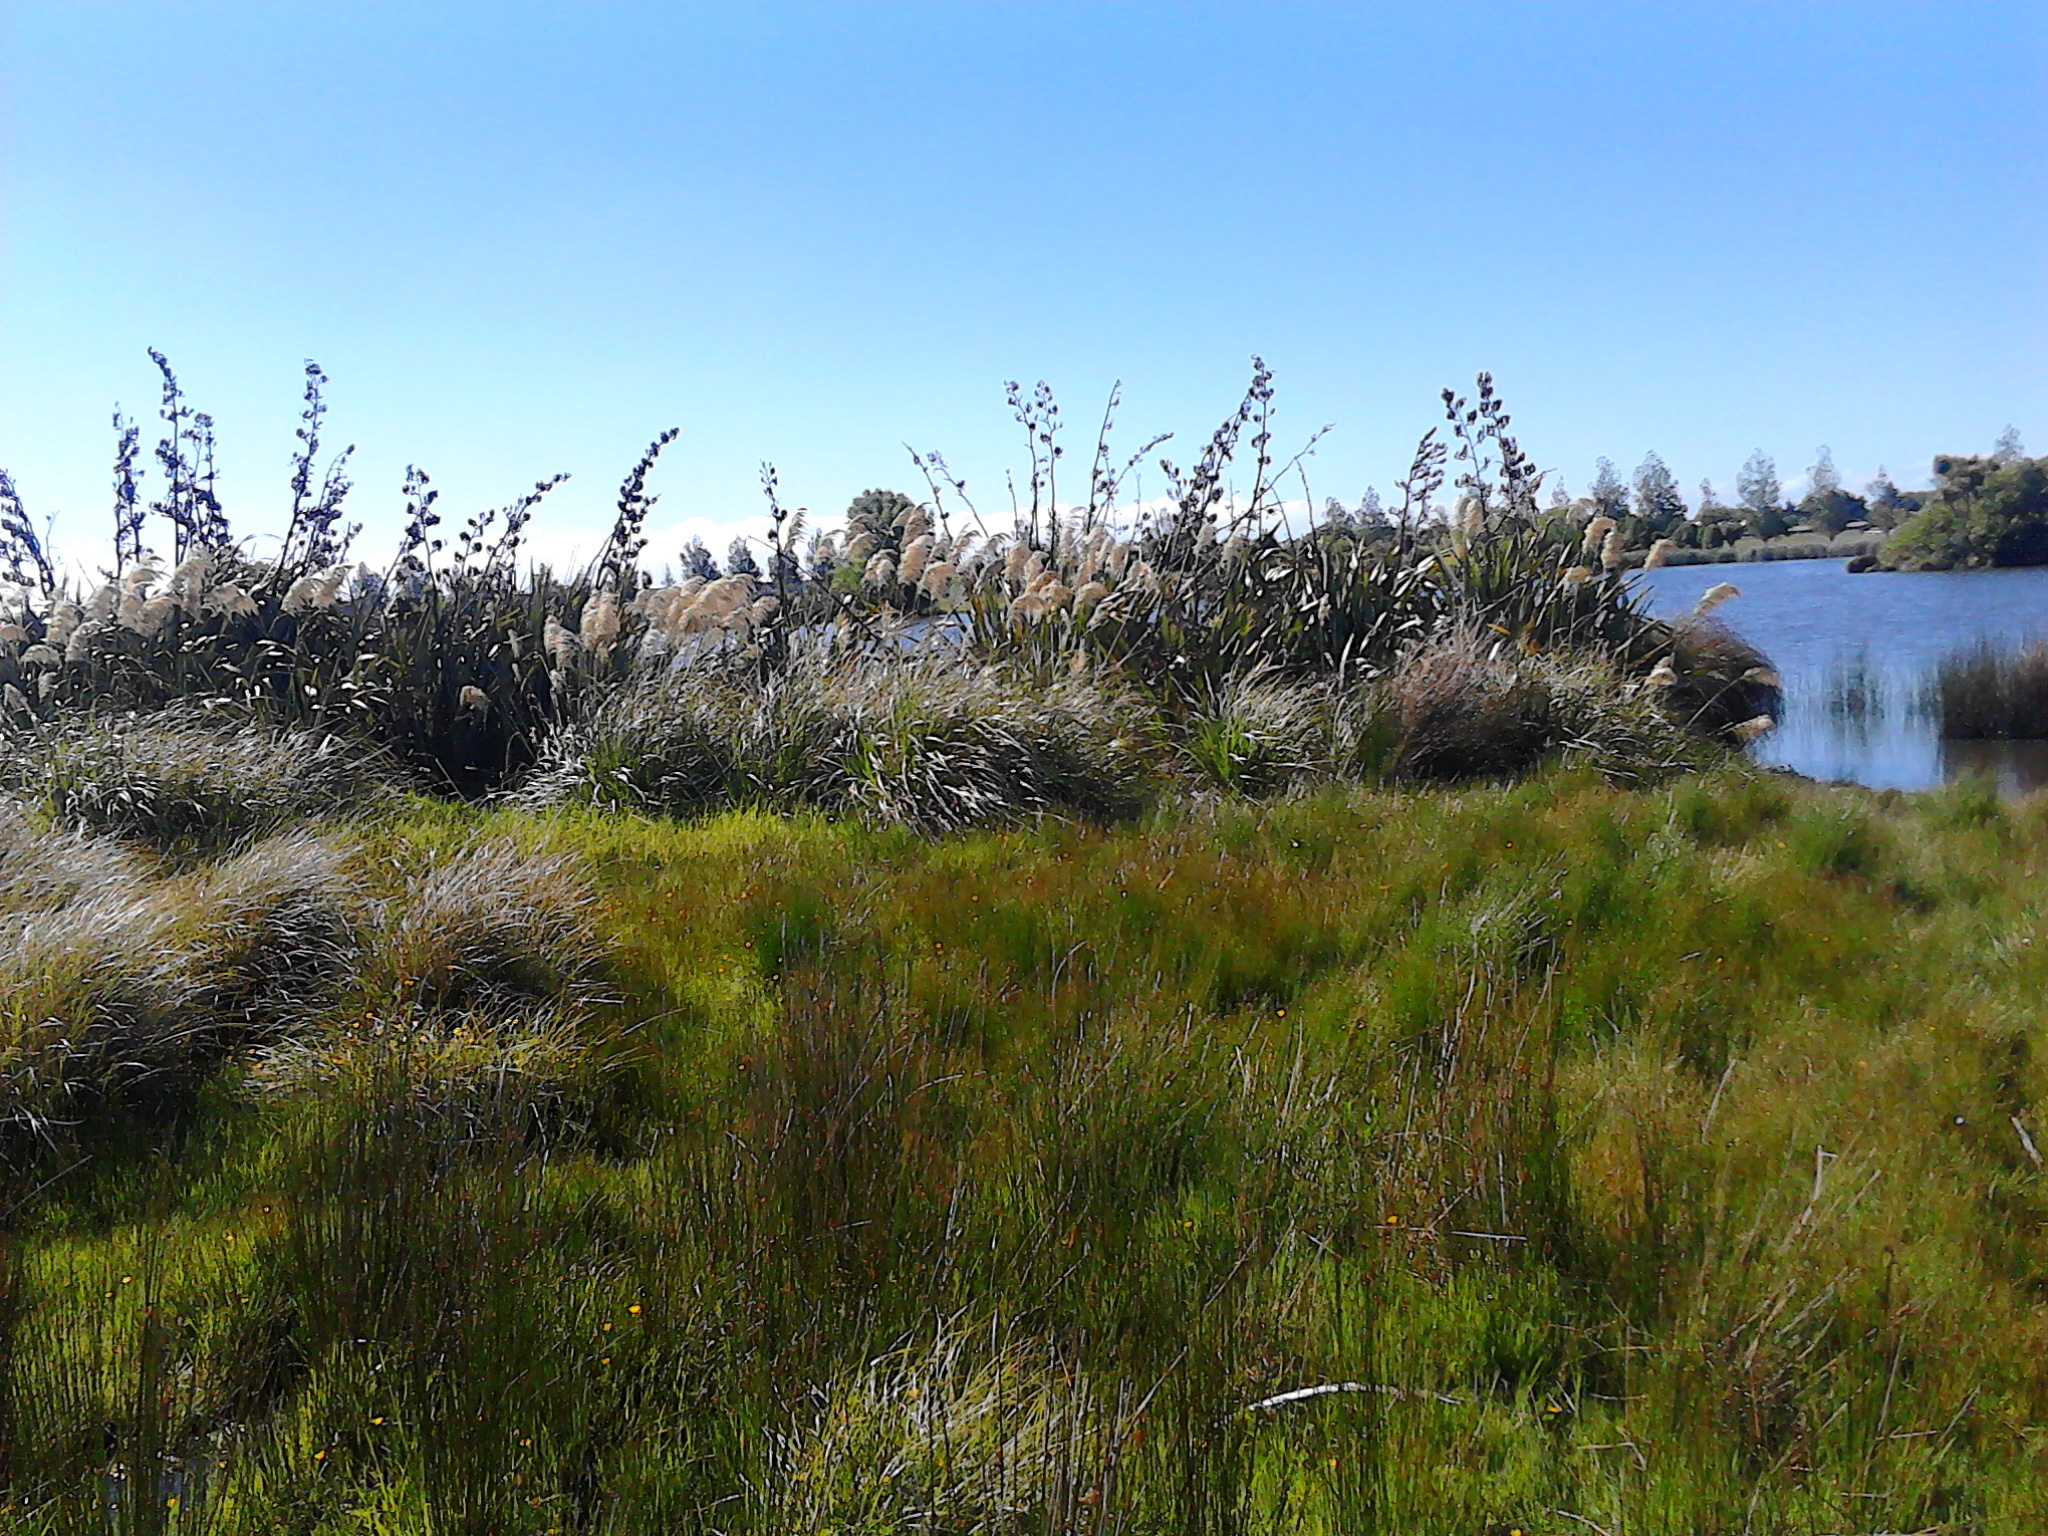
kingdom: Plantae
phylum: Tracheophyta
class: Liliopsida
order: Poales
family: Poaceae
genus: Austroderia
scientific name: Austroderia richardii
